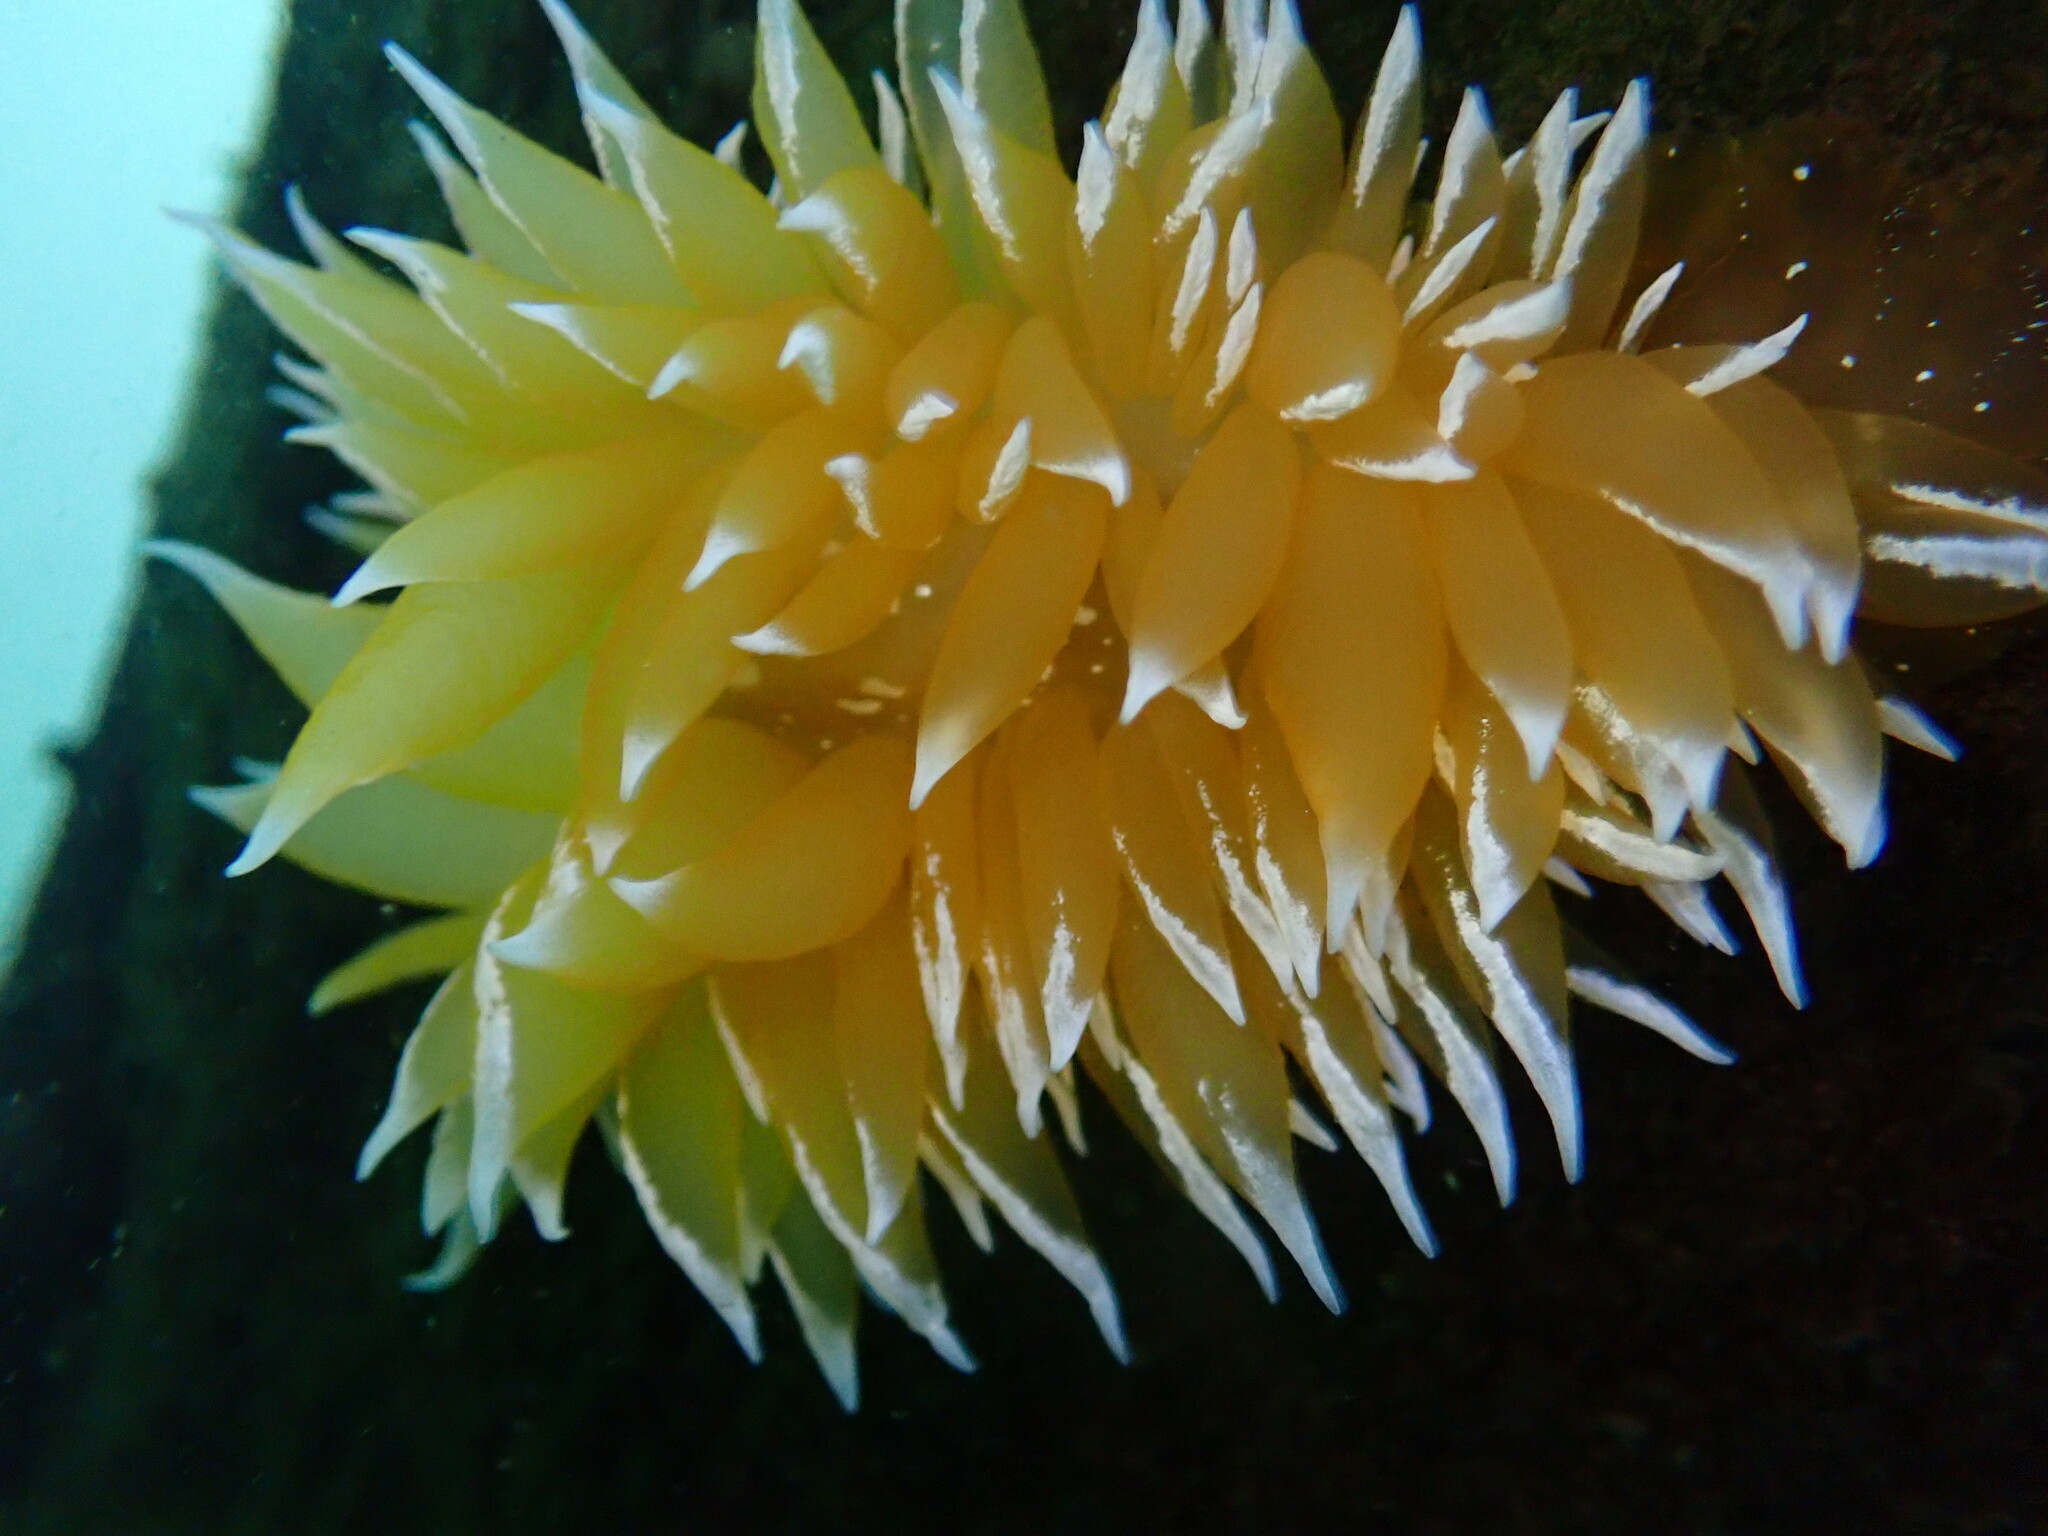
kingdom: Animalia
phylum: Mollusca
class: Gastropoda
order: Nudibranchia
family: Dironidae
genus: Dirona
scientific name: Dirona pellucida
